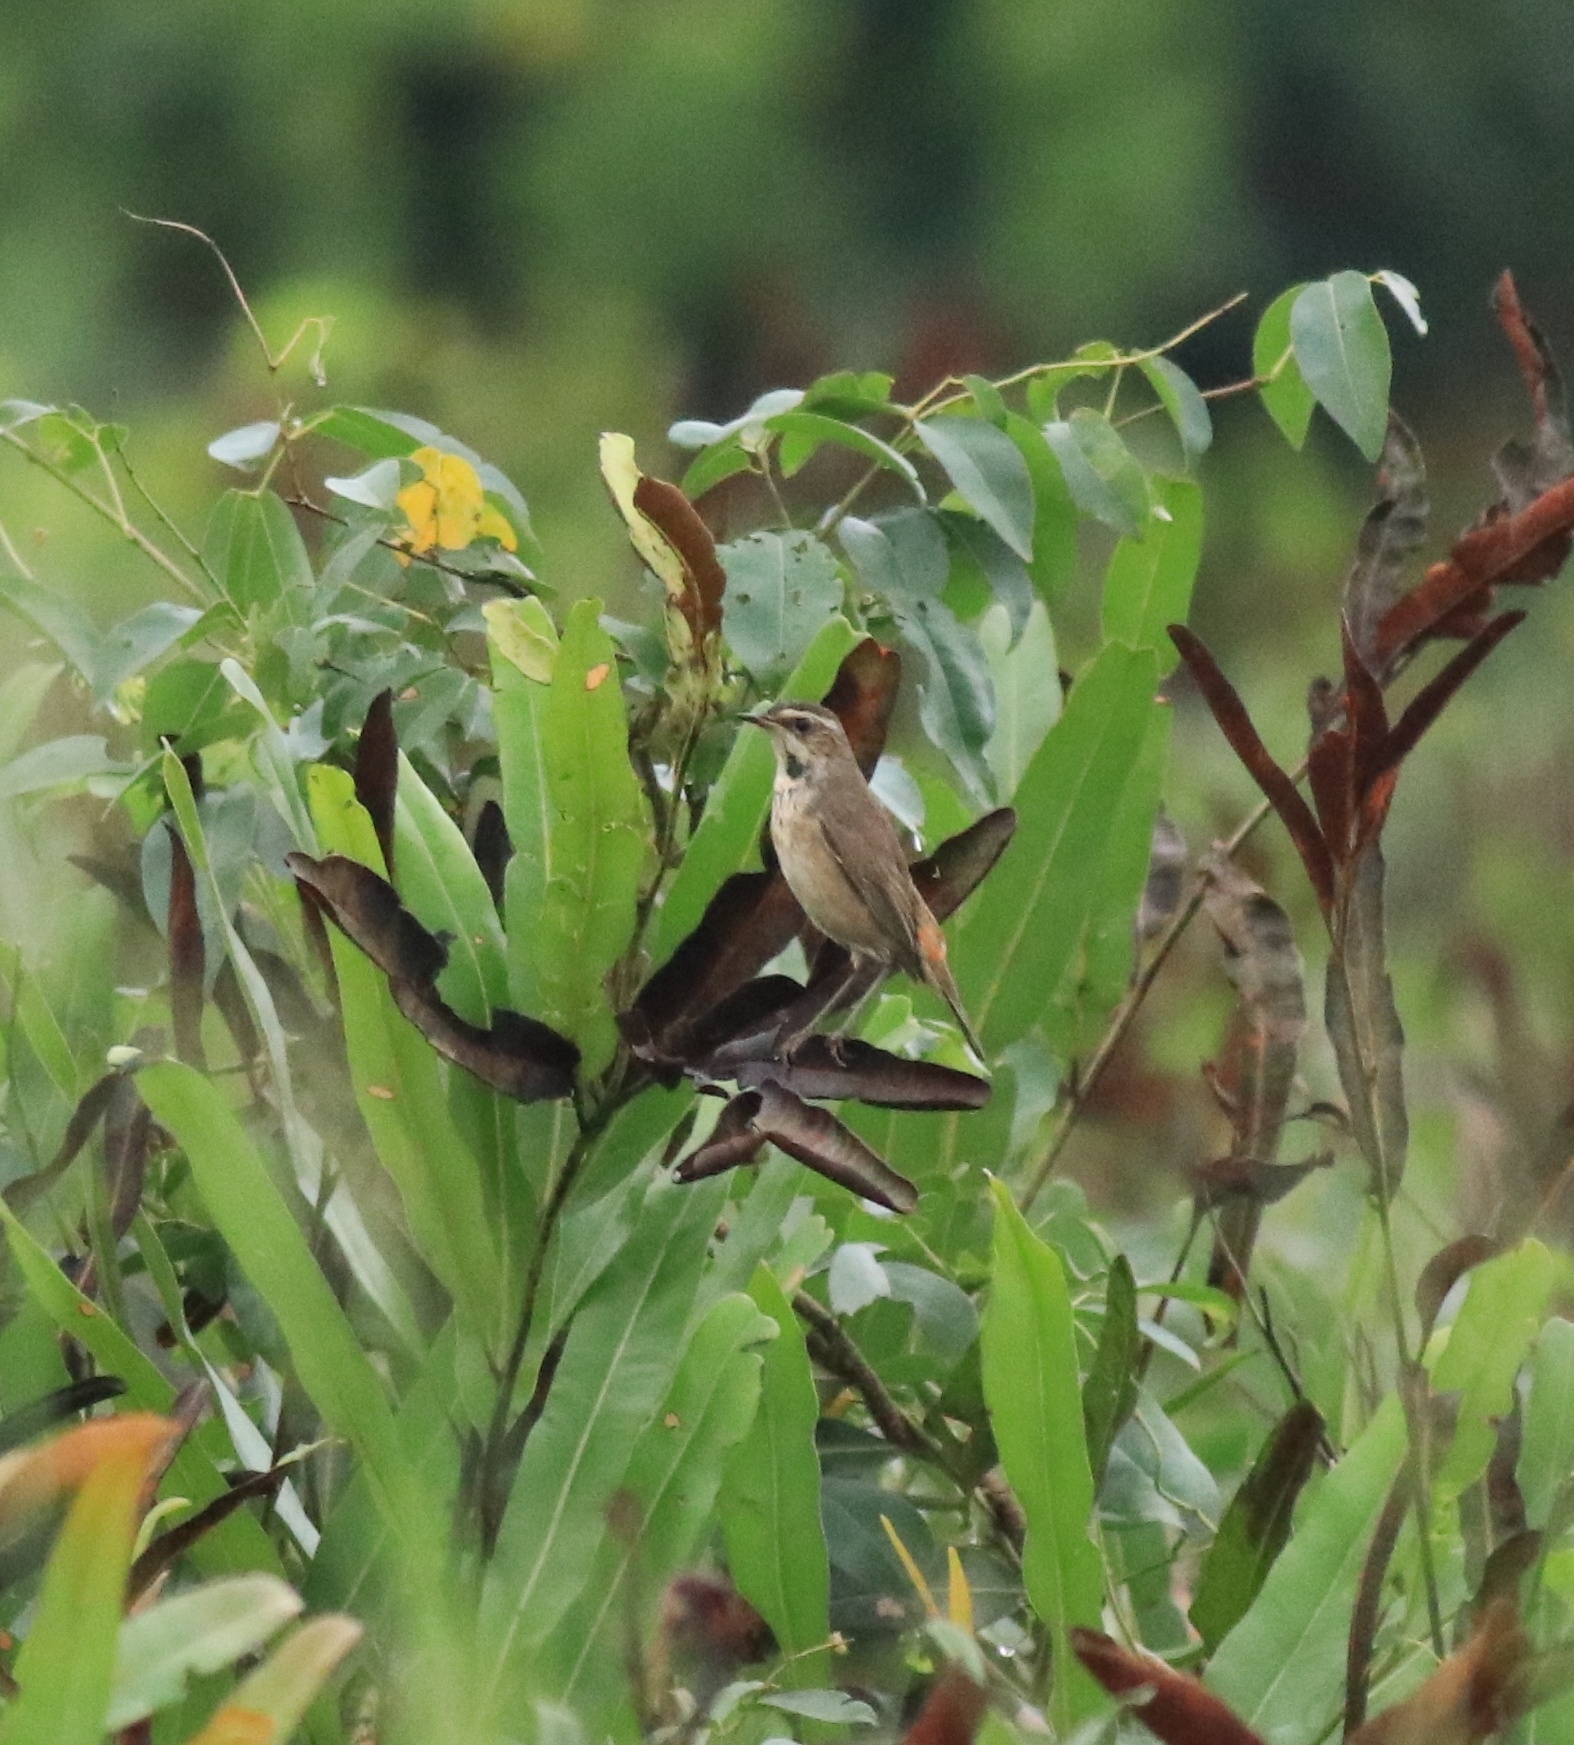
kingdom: Animalia
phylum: Chordata
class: Aves
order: Passeriformes
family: Muscicapidae
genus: Luscinia
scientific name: Luscinia svecica
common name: Bluethroat
